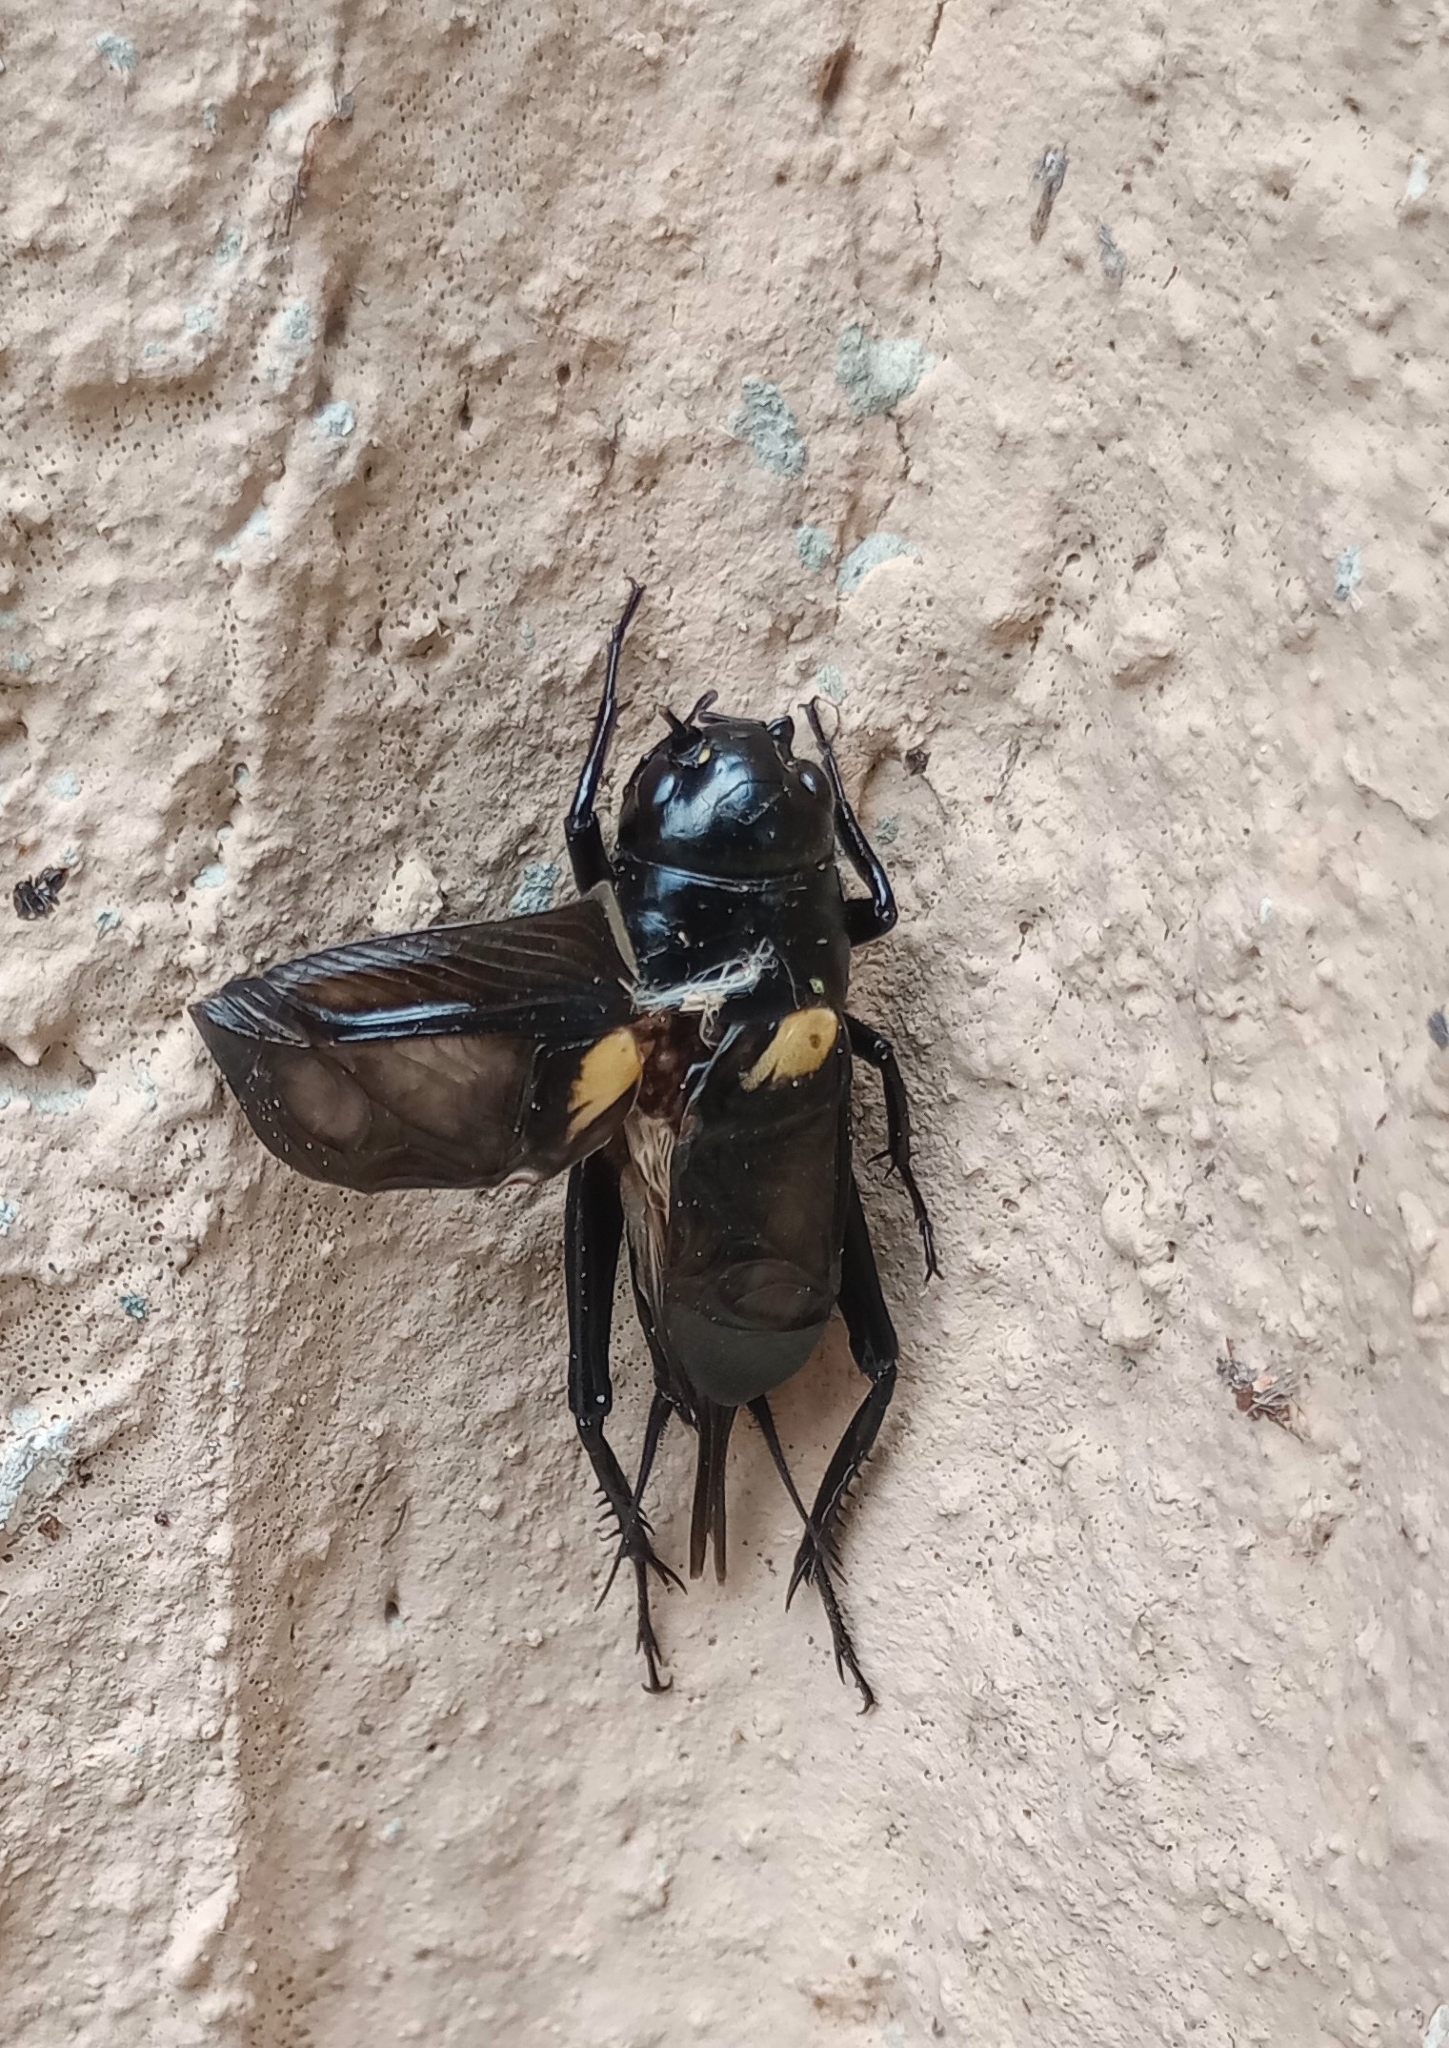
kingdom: Animalia
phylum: Arthropoda
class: Insecta
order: Orthoptera
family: Gryllidae
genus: Gryllus
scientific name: Gryllus bimaculatus
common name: Two-spotted cricket
